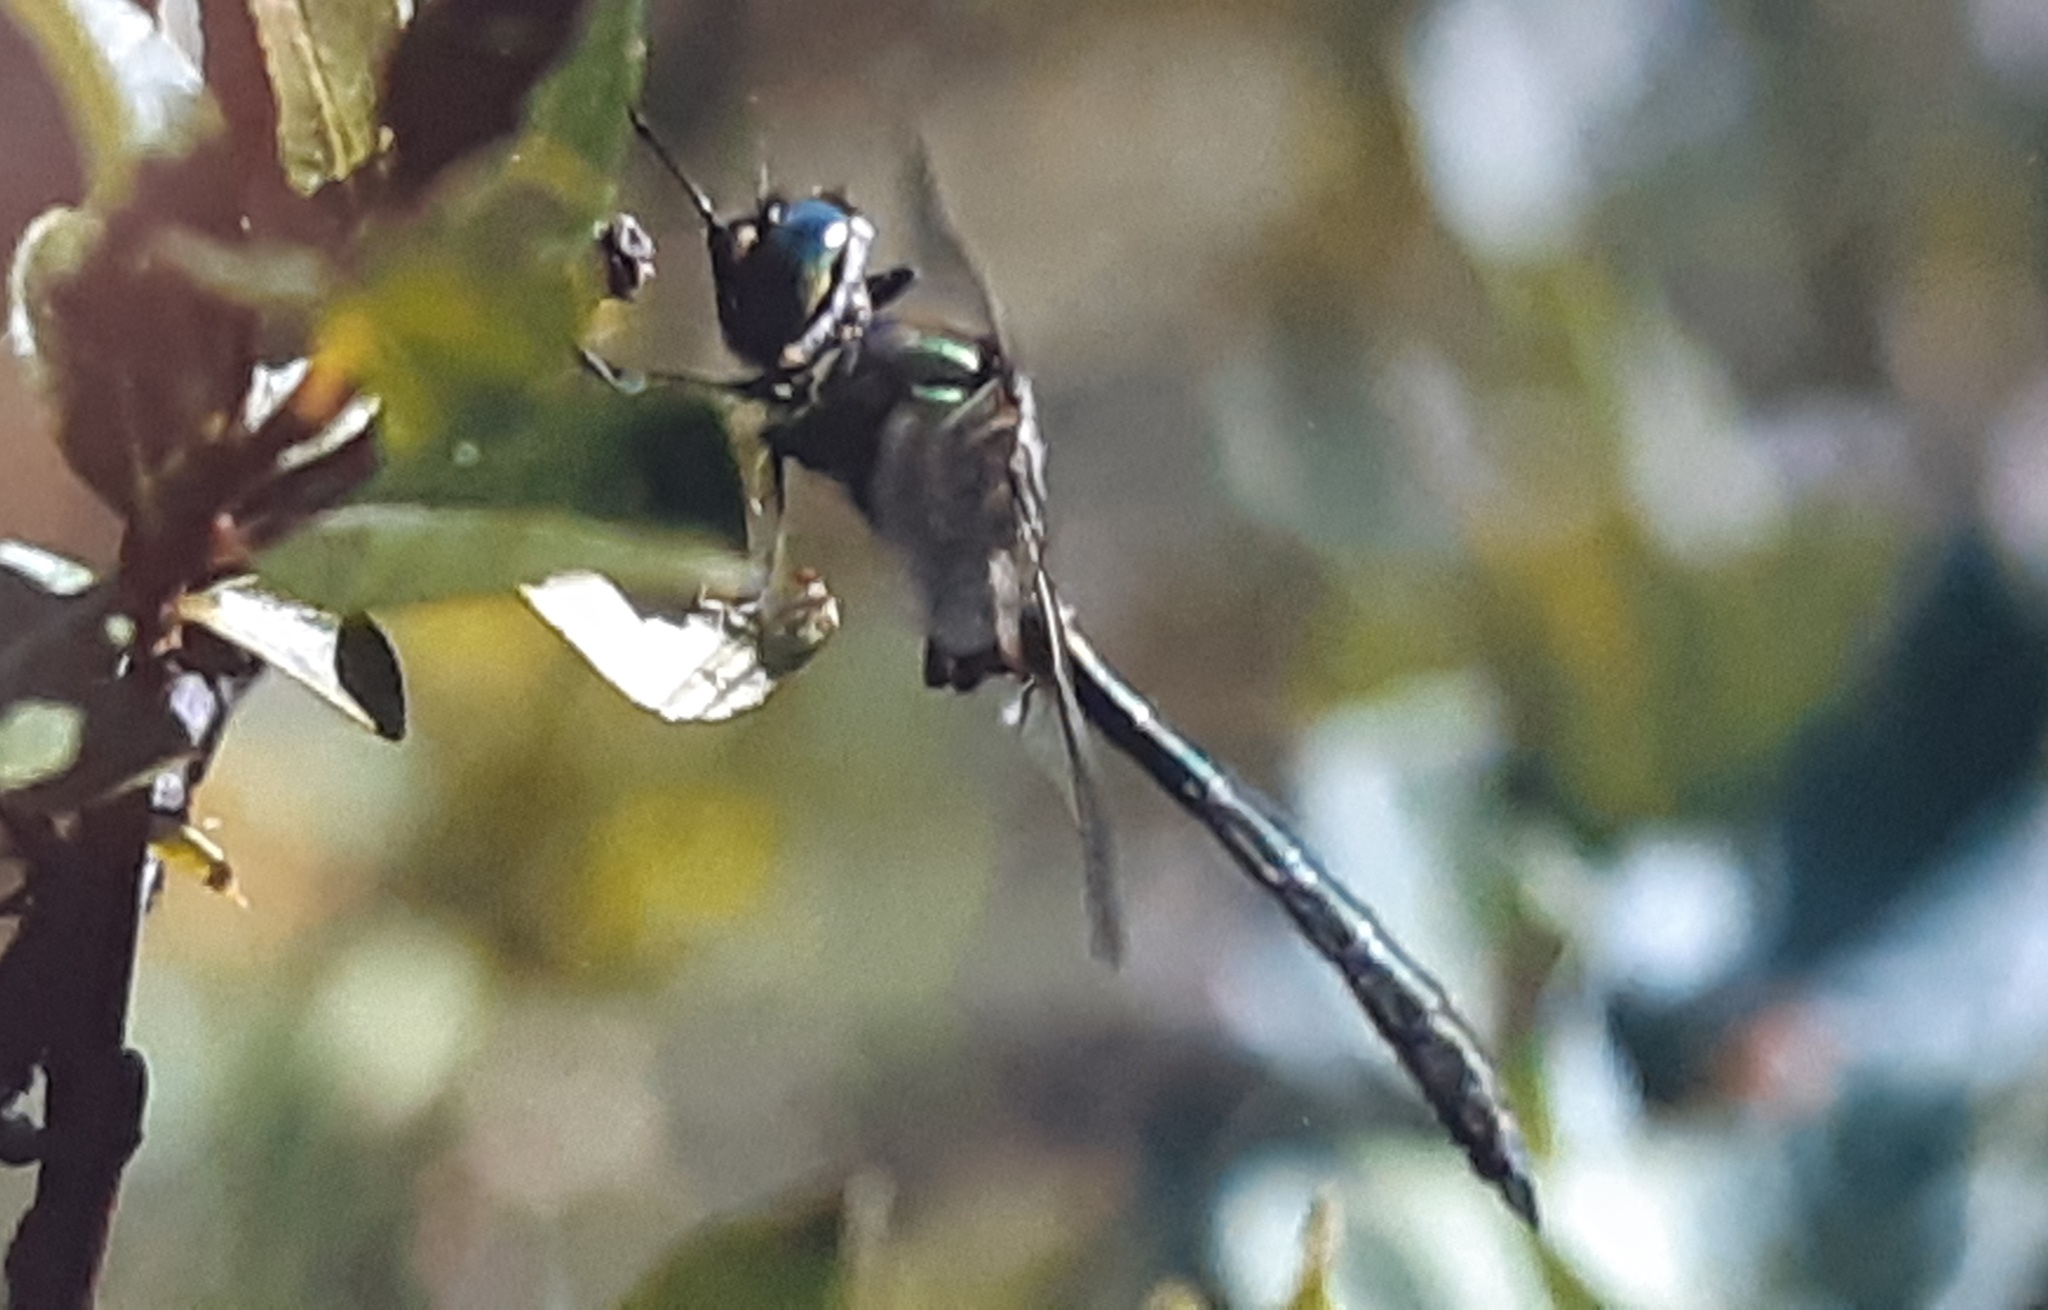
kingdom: Animalia
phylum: Arthropoda
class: Insecta
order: Odonata
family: Corduliidae
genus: Somatochlora
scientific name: Somatochlora metallica
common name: Brilliant emerald
